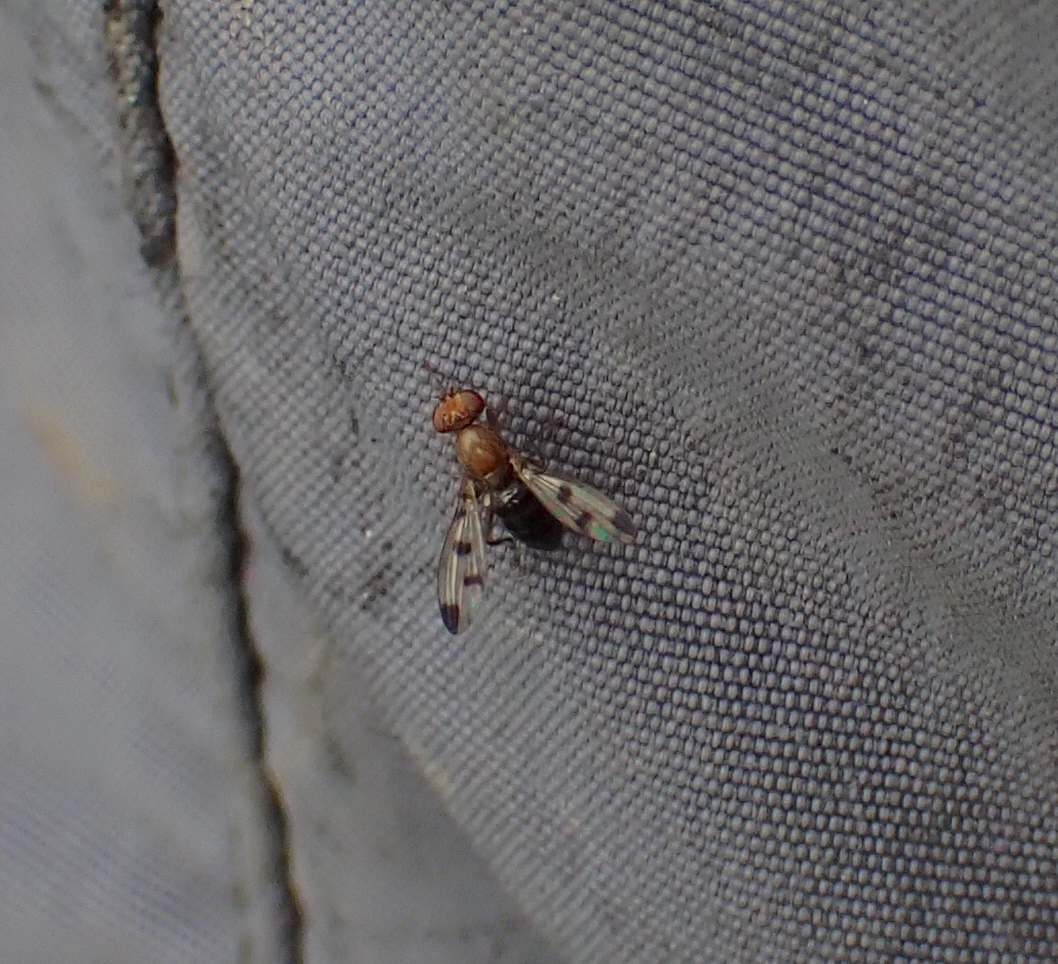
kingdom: Animalia
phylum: Arthropoda
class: Insecta
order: Diptera
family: Opomyzidae
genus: Geomyza
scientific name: Geomyza tripunctata
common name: Cereal fly
